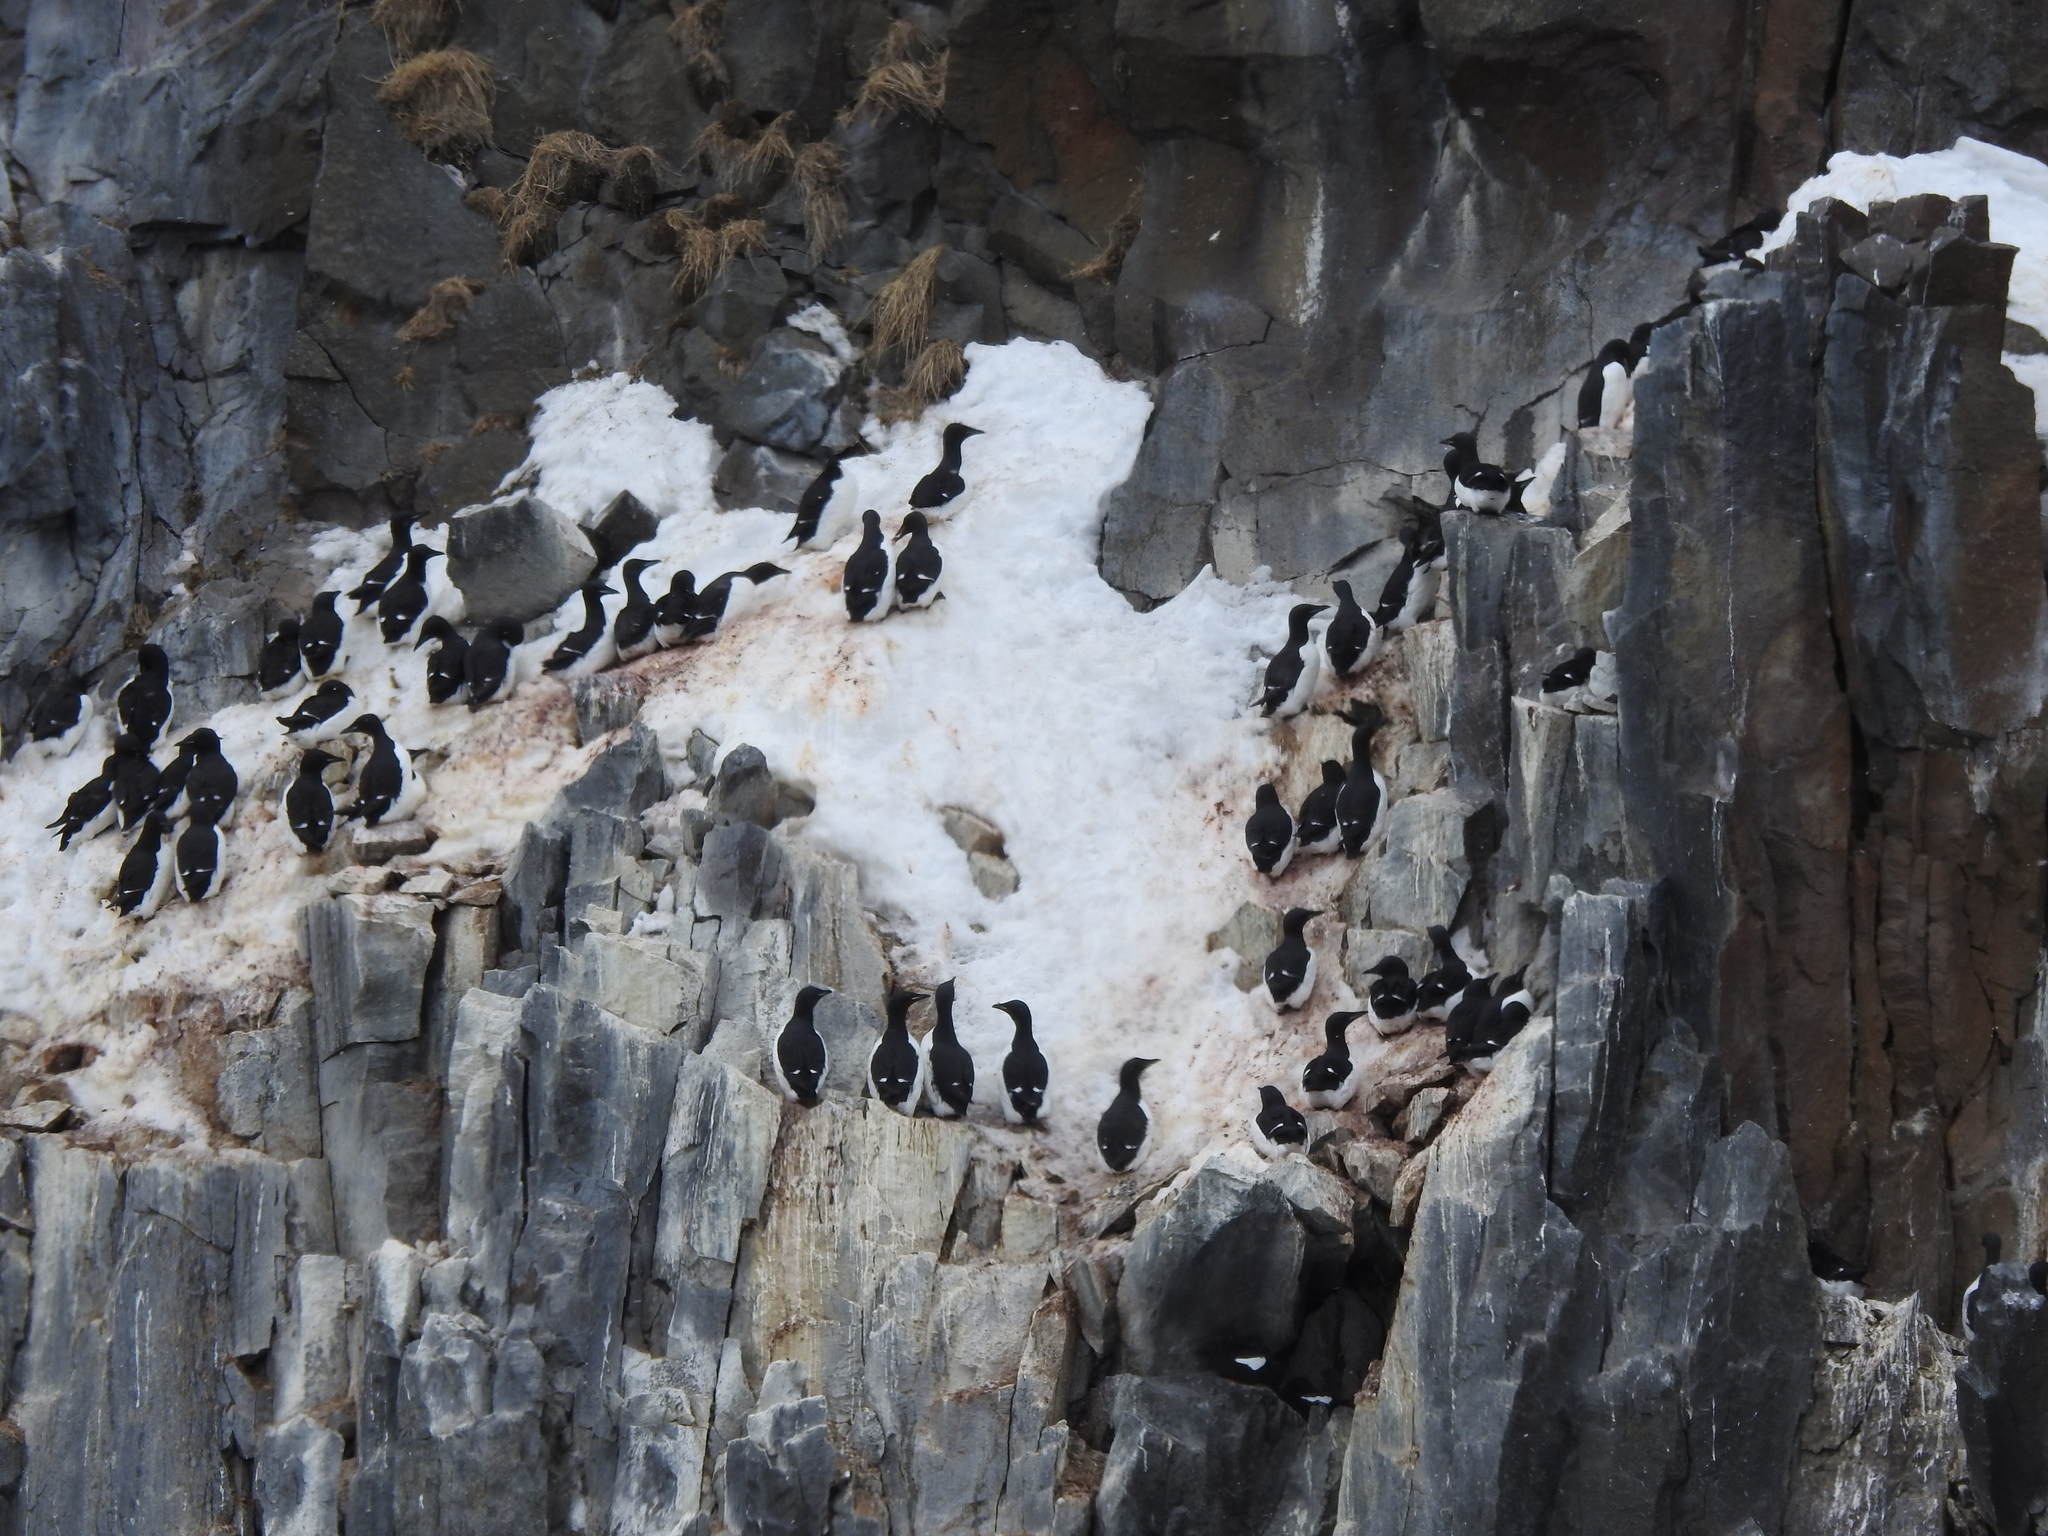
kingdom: Animalia
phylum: Chordata
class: Aves
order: Charadriiformes
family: Alcidae
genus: Uria
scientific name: Uria lomvia
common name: Thick-billed murre
